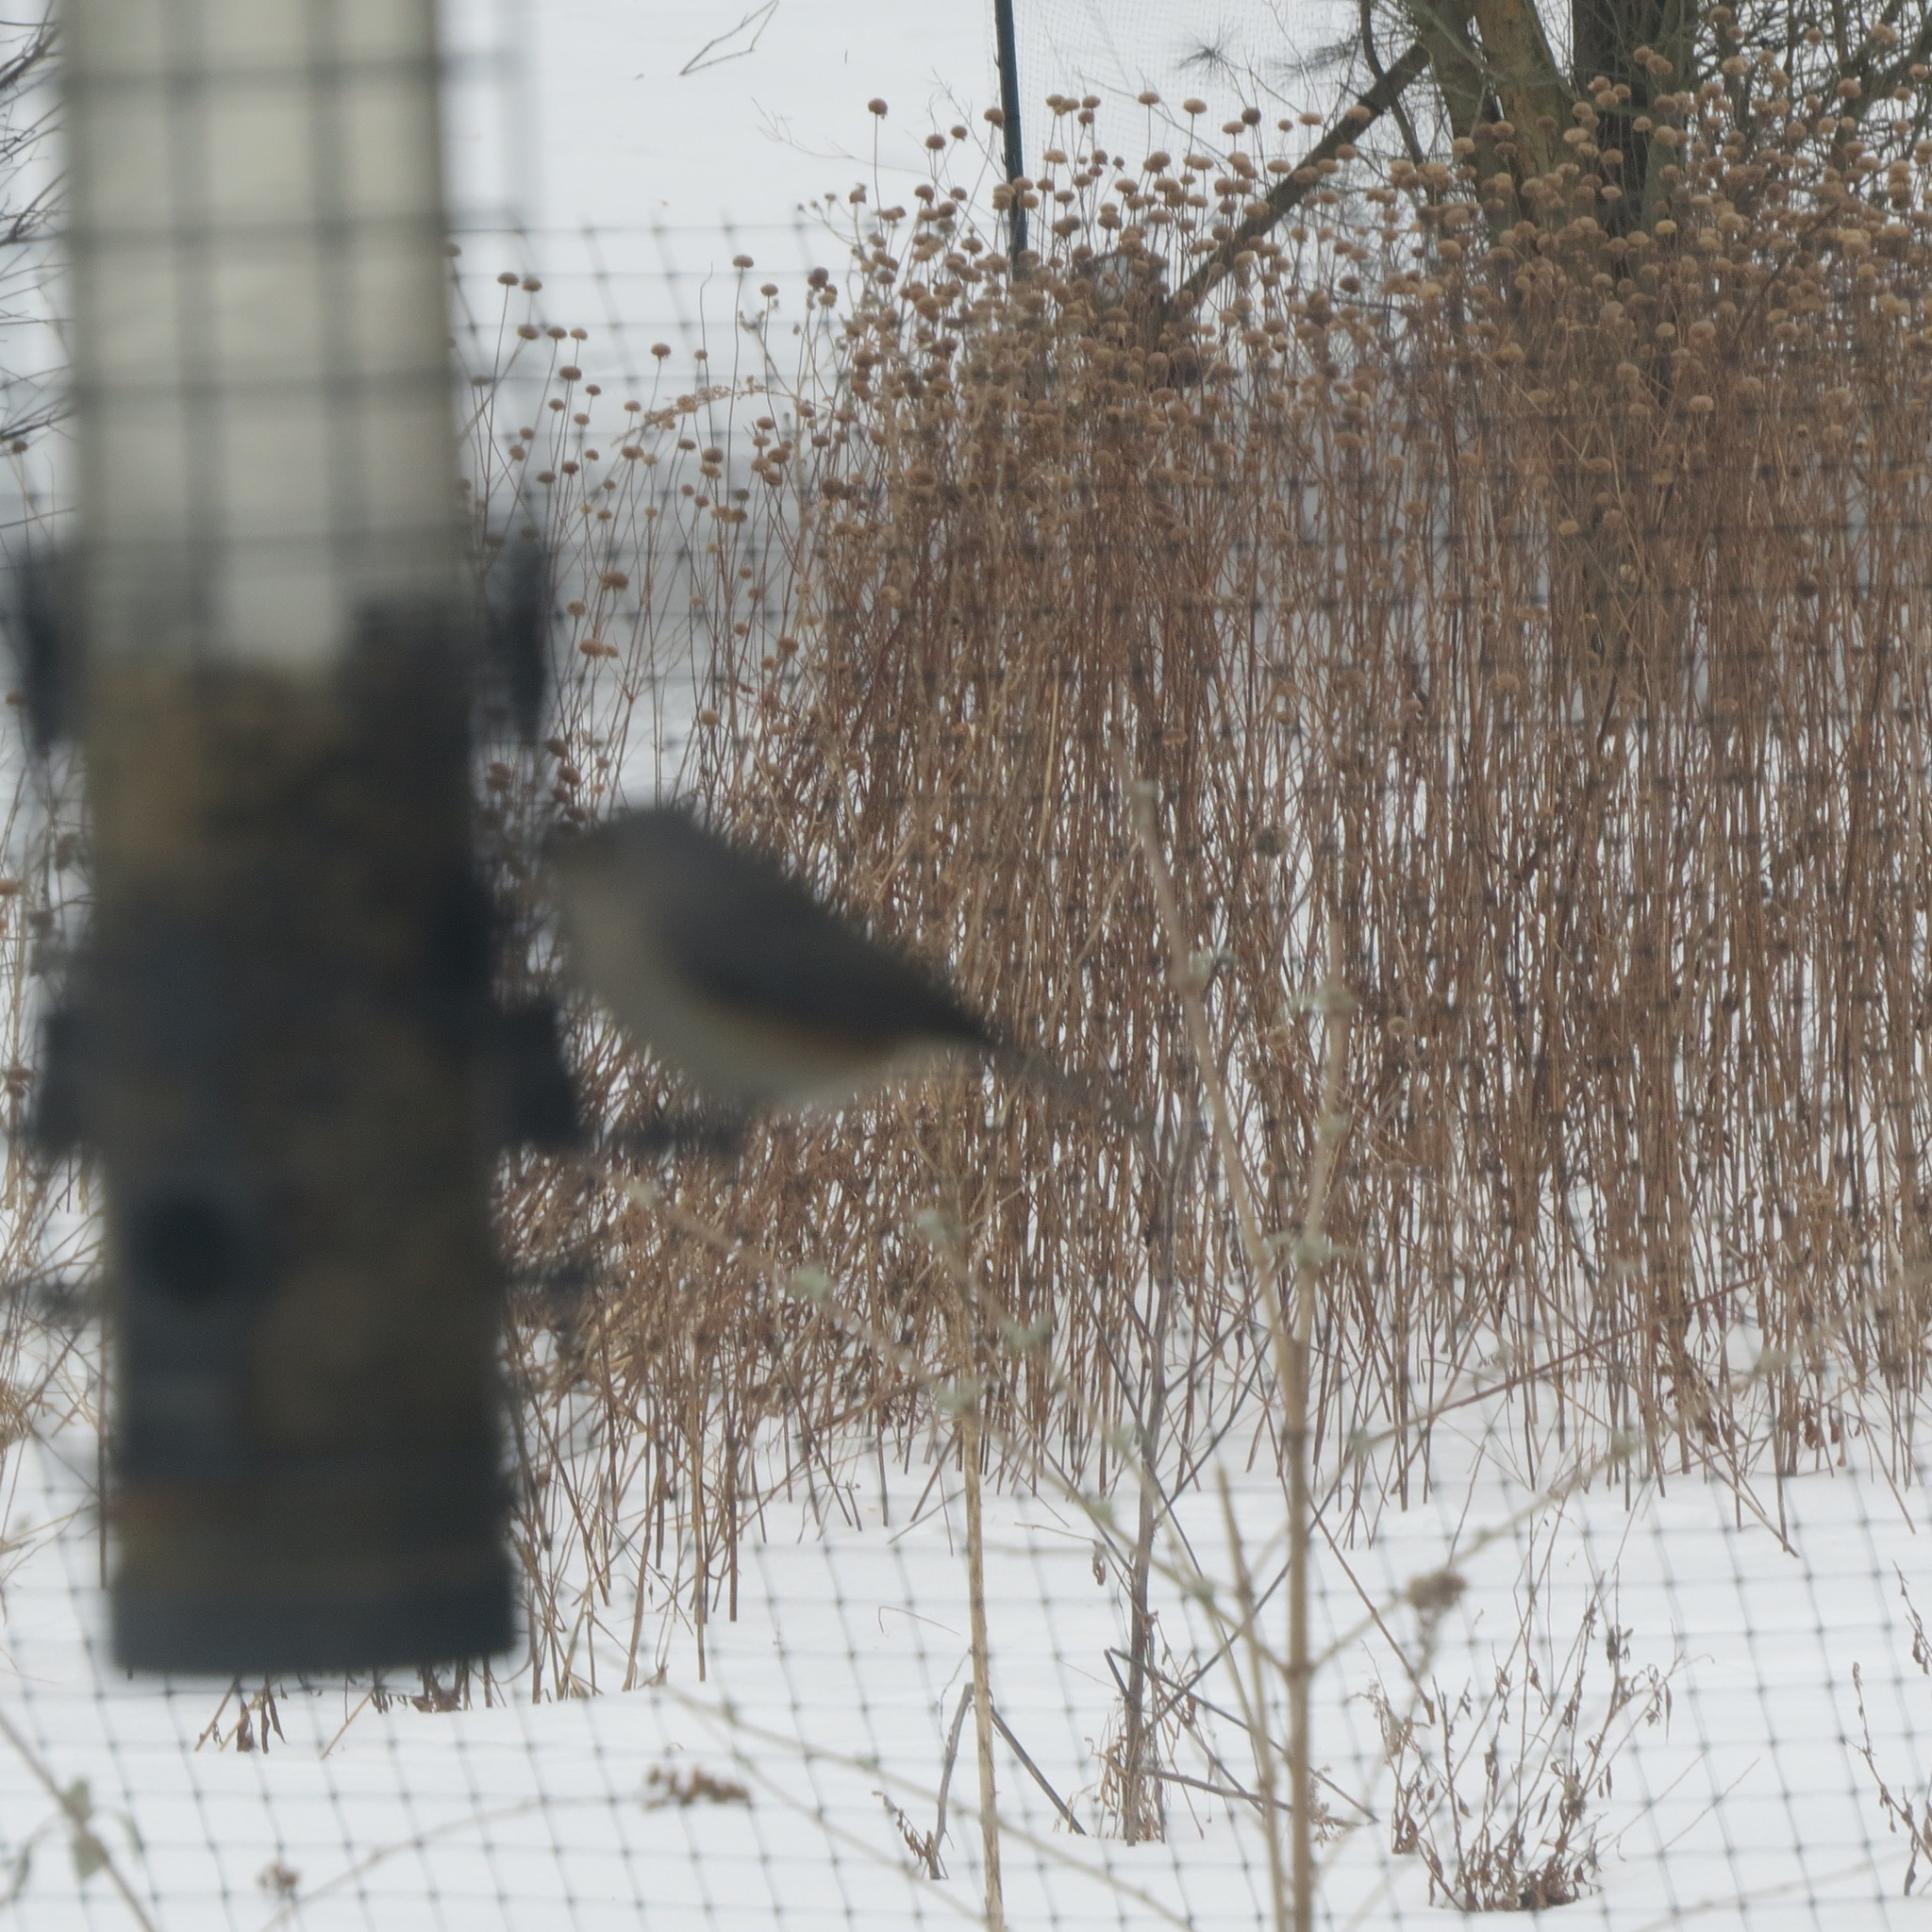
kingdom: Animalia
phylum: Chordata
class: Aves
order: Passeriformes
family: Paridae
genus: Baeolophus
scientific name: Baeolophus bicolor
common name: Tufted titmouse
